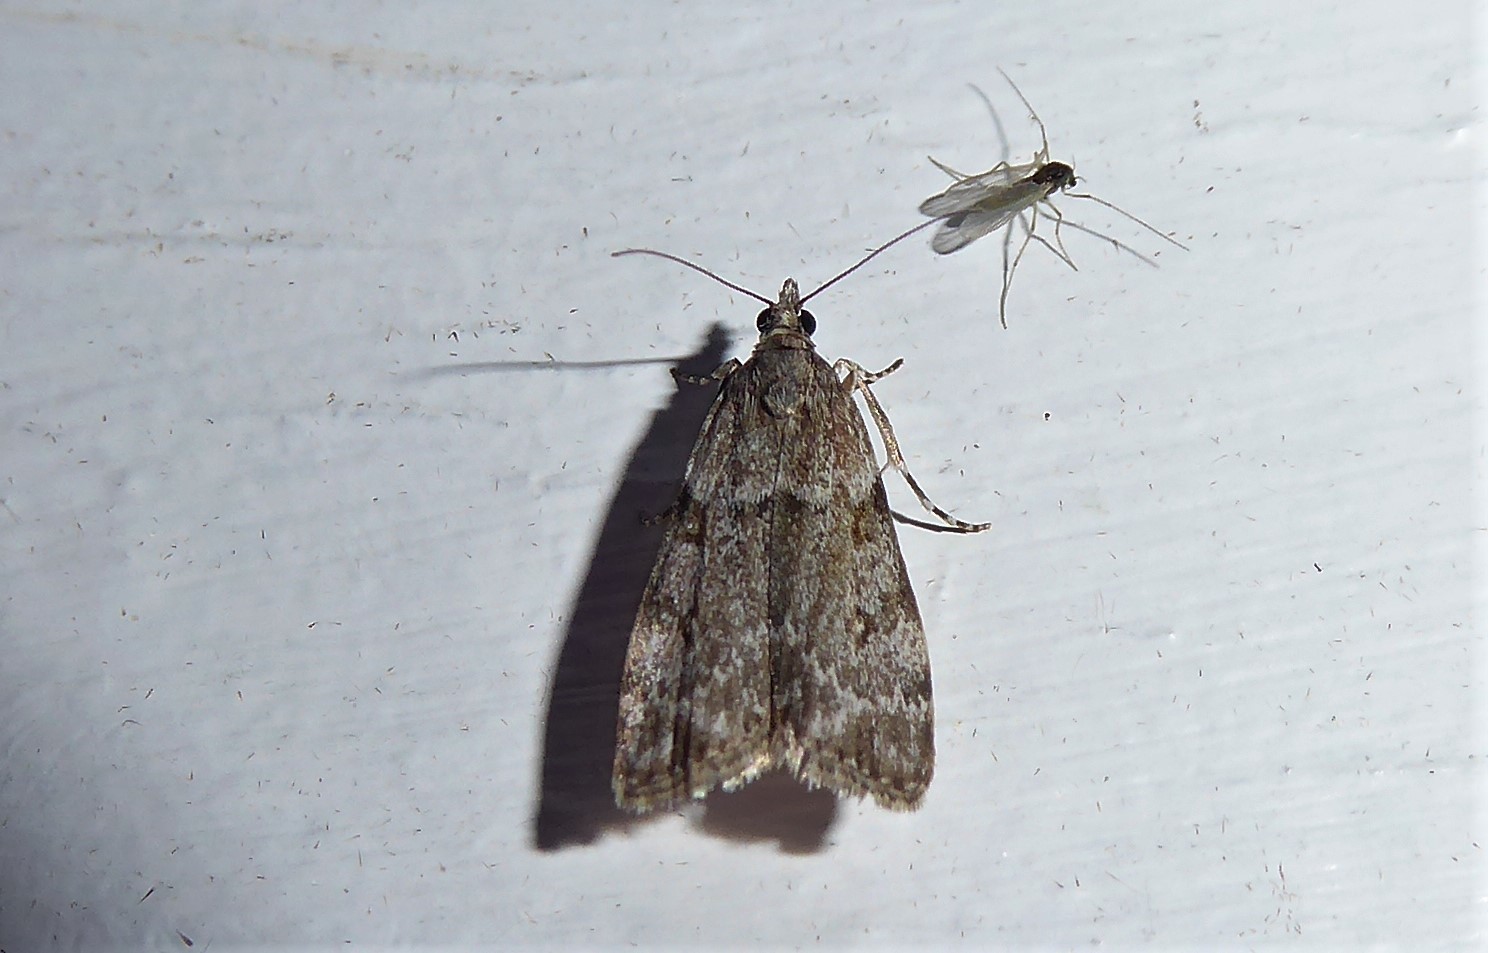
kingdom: Animalia
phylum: Arthropoda
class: Insecta
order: Lepidoptera
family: Crambidae
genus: Eudonia
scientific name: Eudonia cymatias
